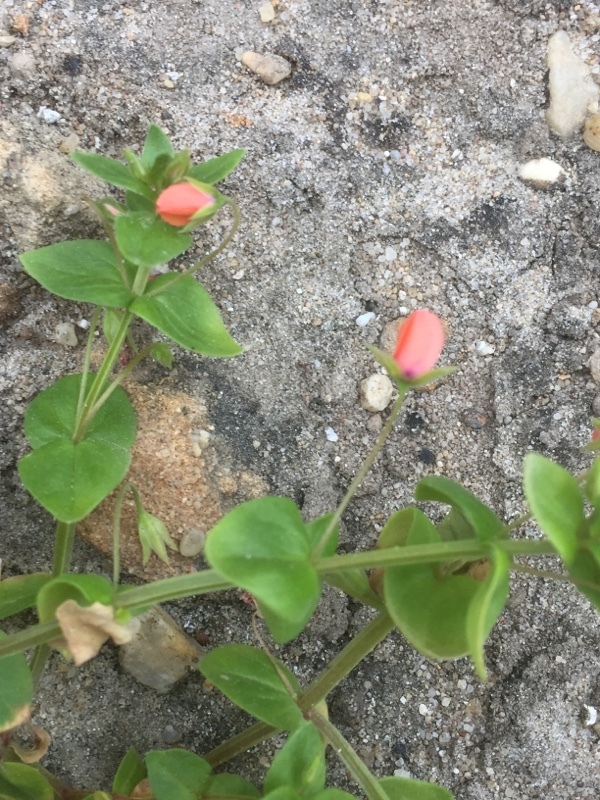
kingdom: Plantae
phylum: Tracheophyta
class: Magnoliopsida
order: Ericales
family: Primulaceae
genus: Lysimachia
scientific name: Lysimachia arvensis
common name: Scarlet pimpernel
